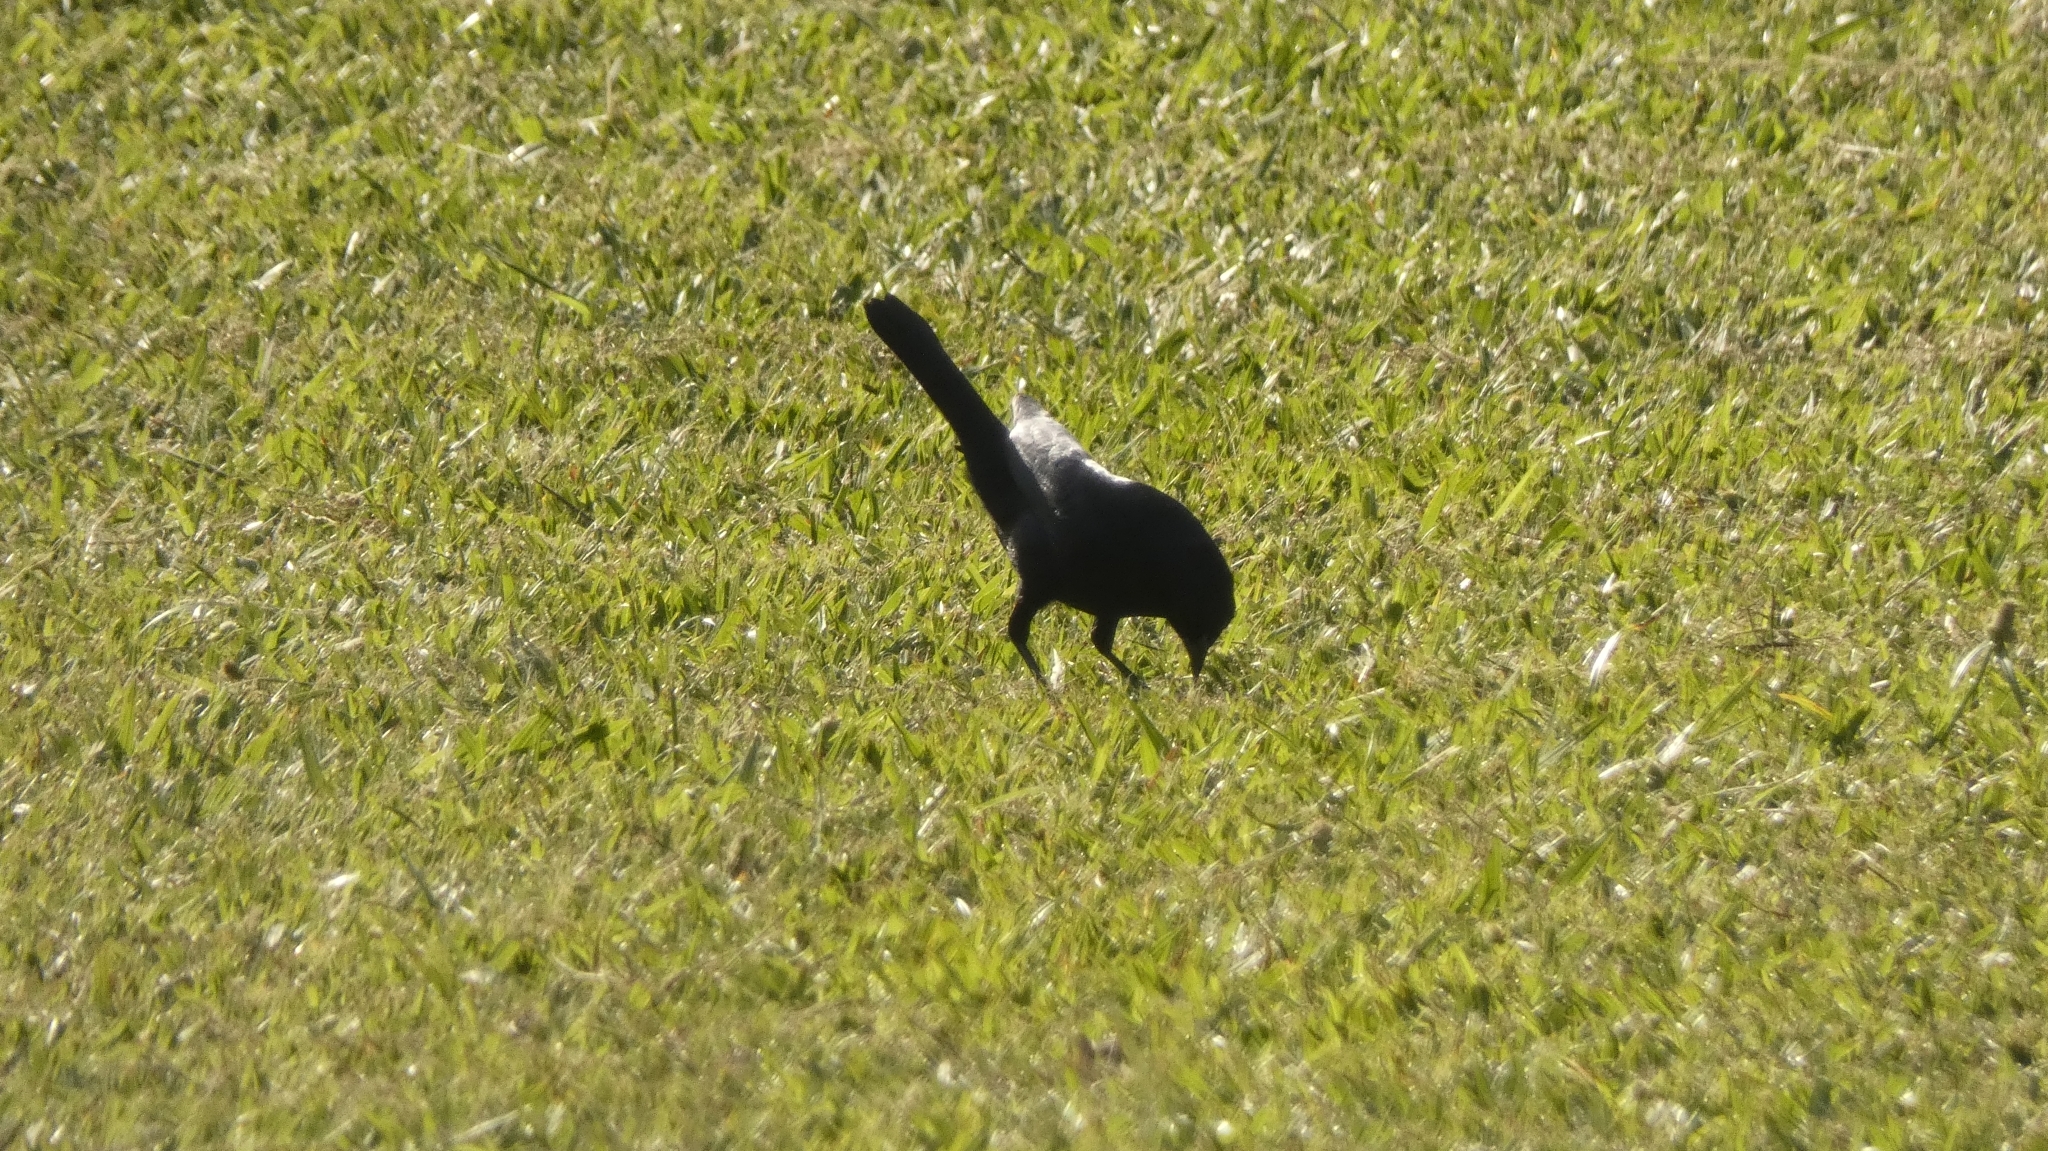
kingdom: Animalia
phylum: Chordata
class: Aves
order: Passeriformes
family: Icteridae
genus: Molothrus
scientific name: Molothrus bonariensis
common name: Shiny cowbird
